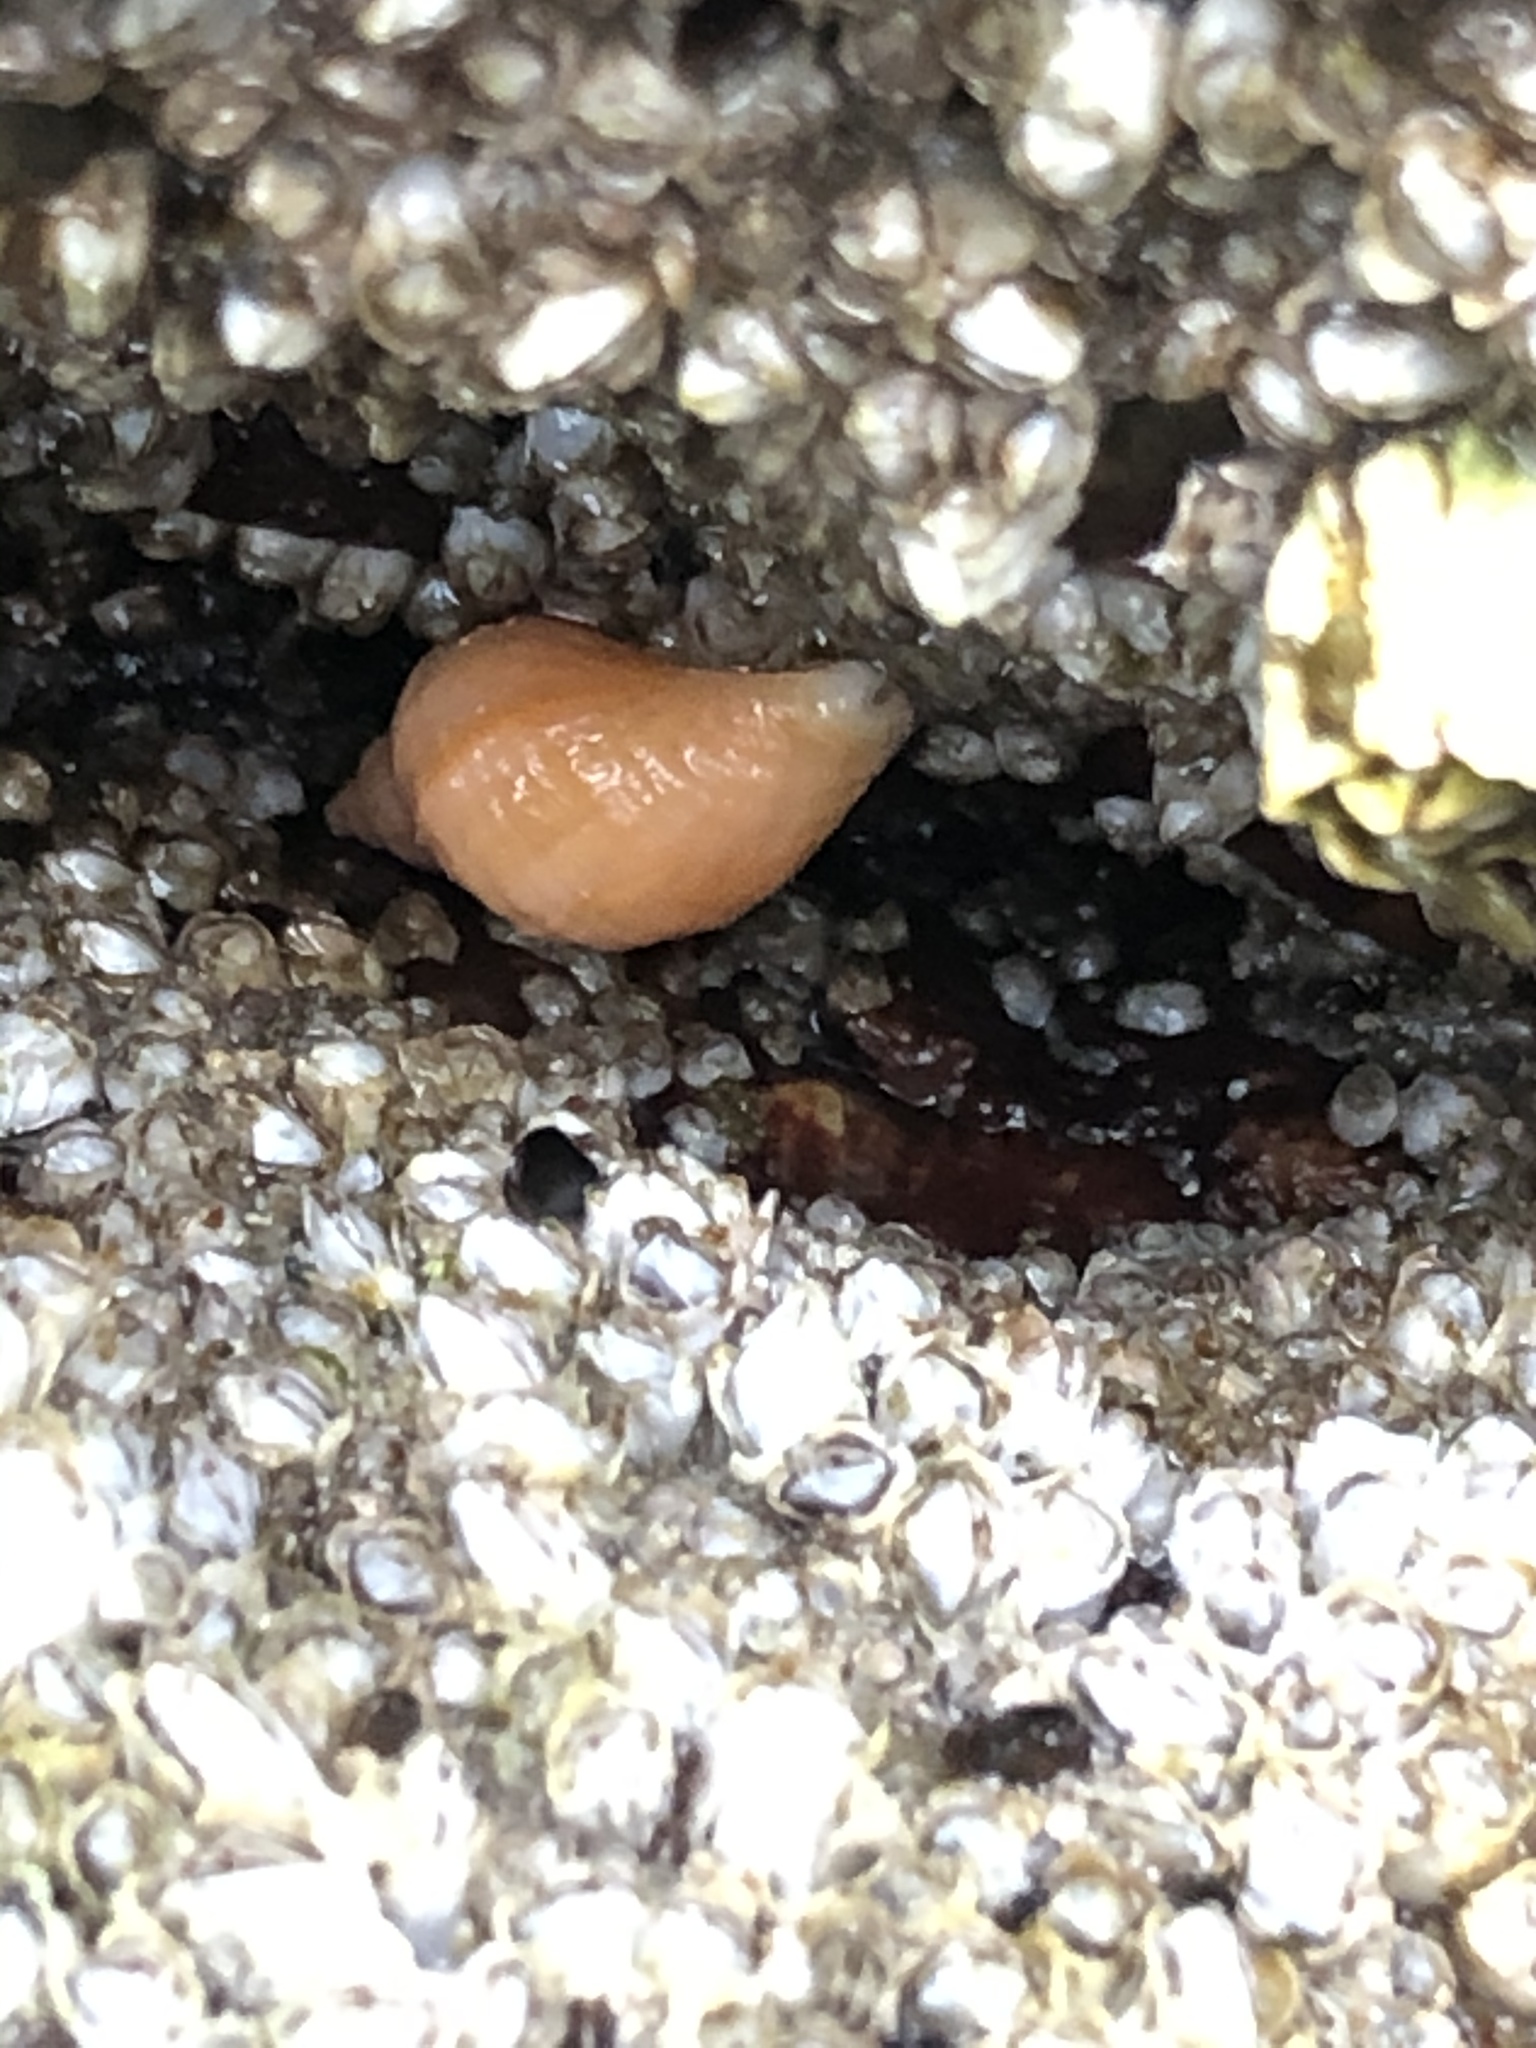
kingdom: Animalia
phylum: Mollusca
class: Gastropoda
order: Neogastropoda
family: Muricidae
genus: Nucella
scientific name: Nucella lapillus
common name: Dog whelk
